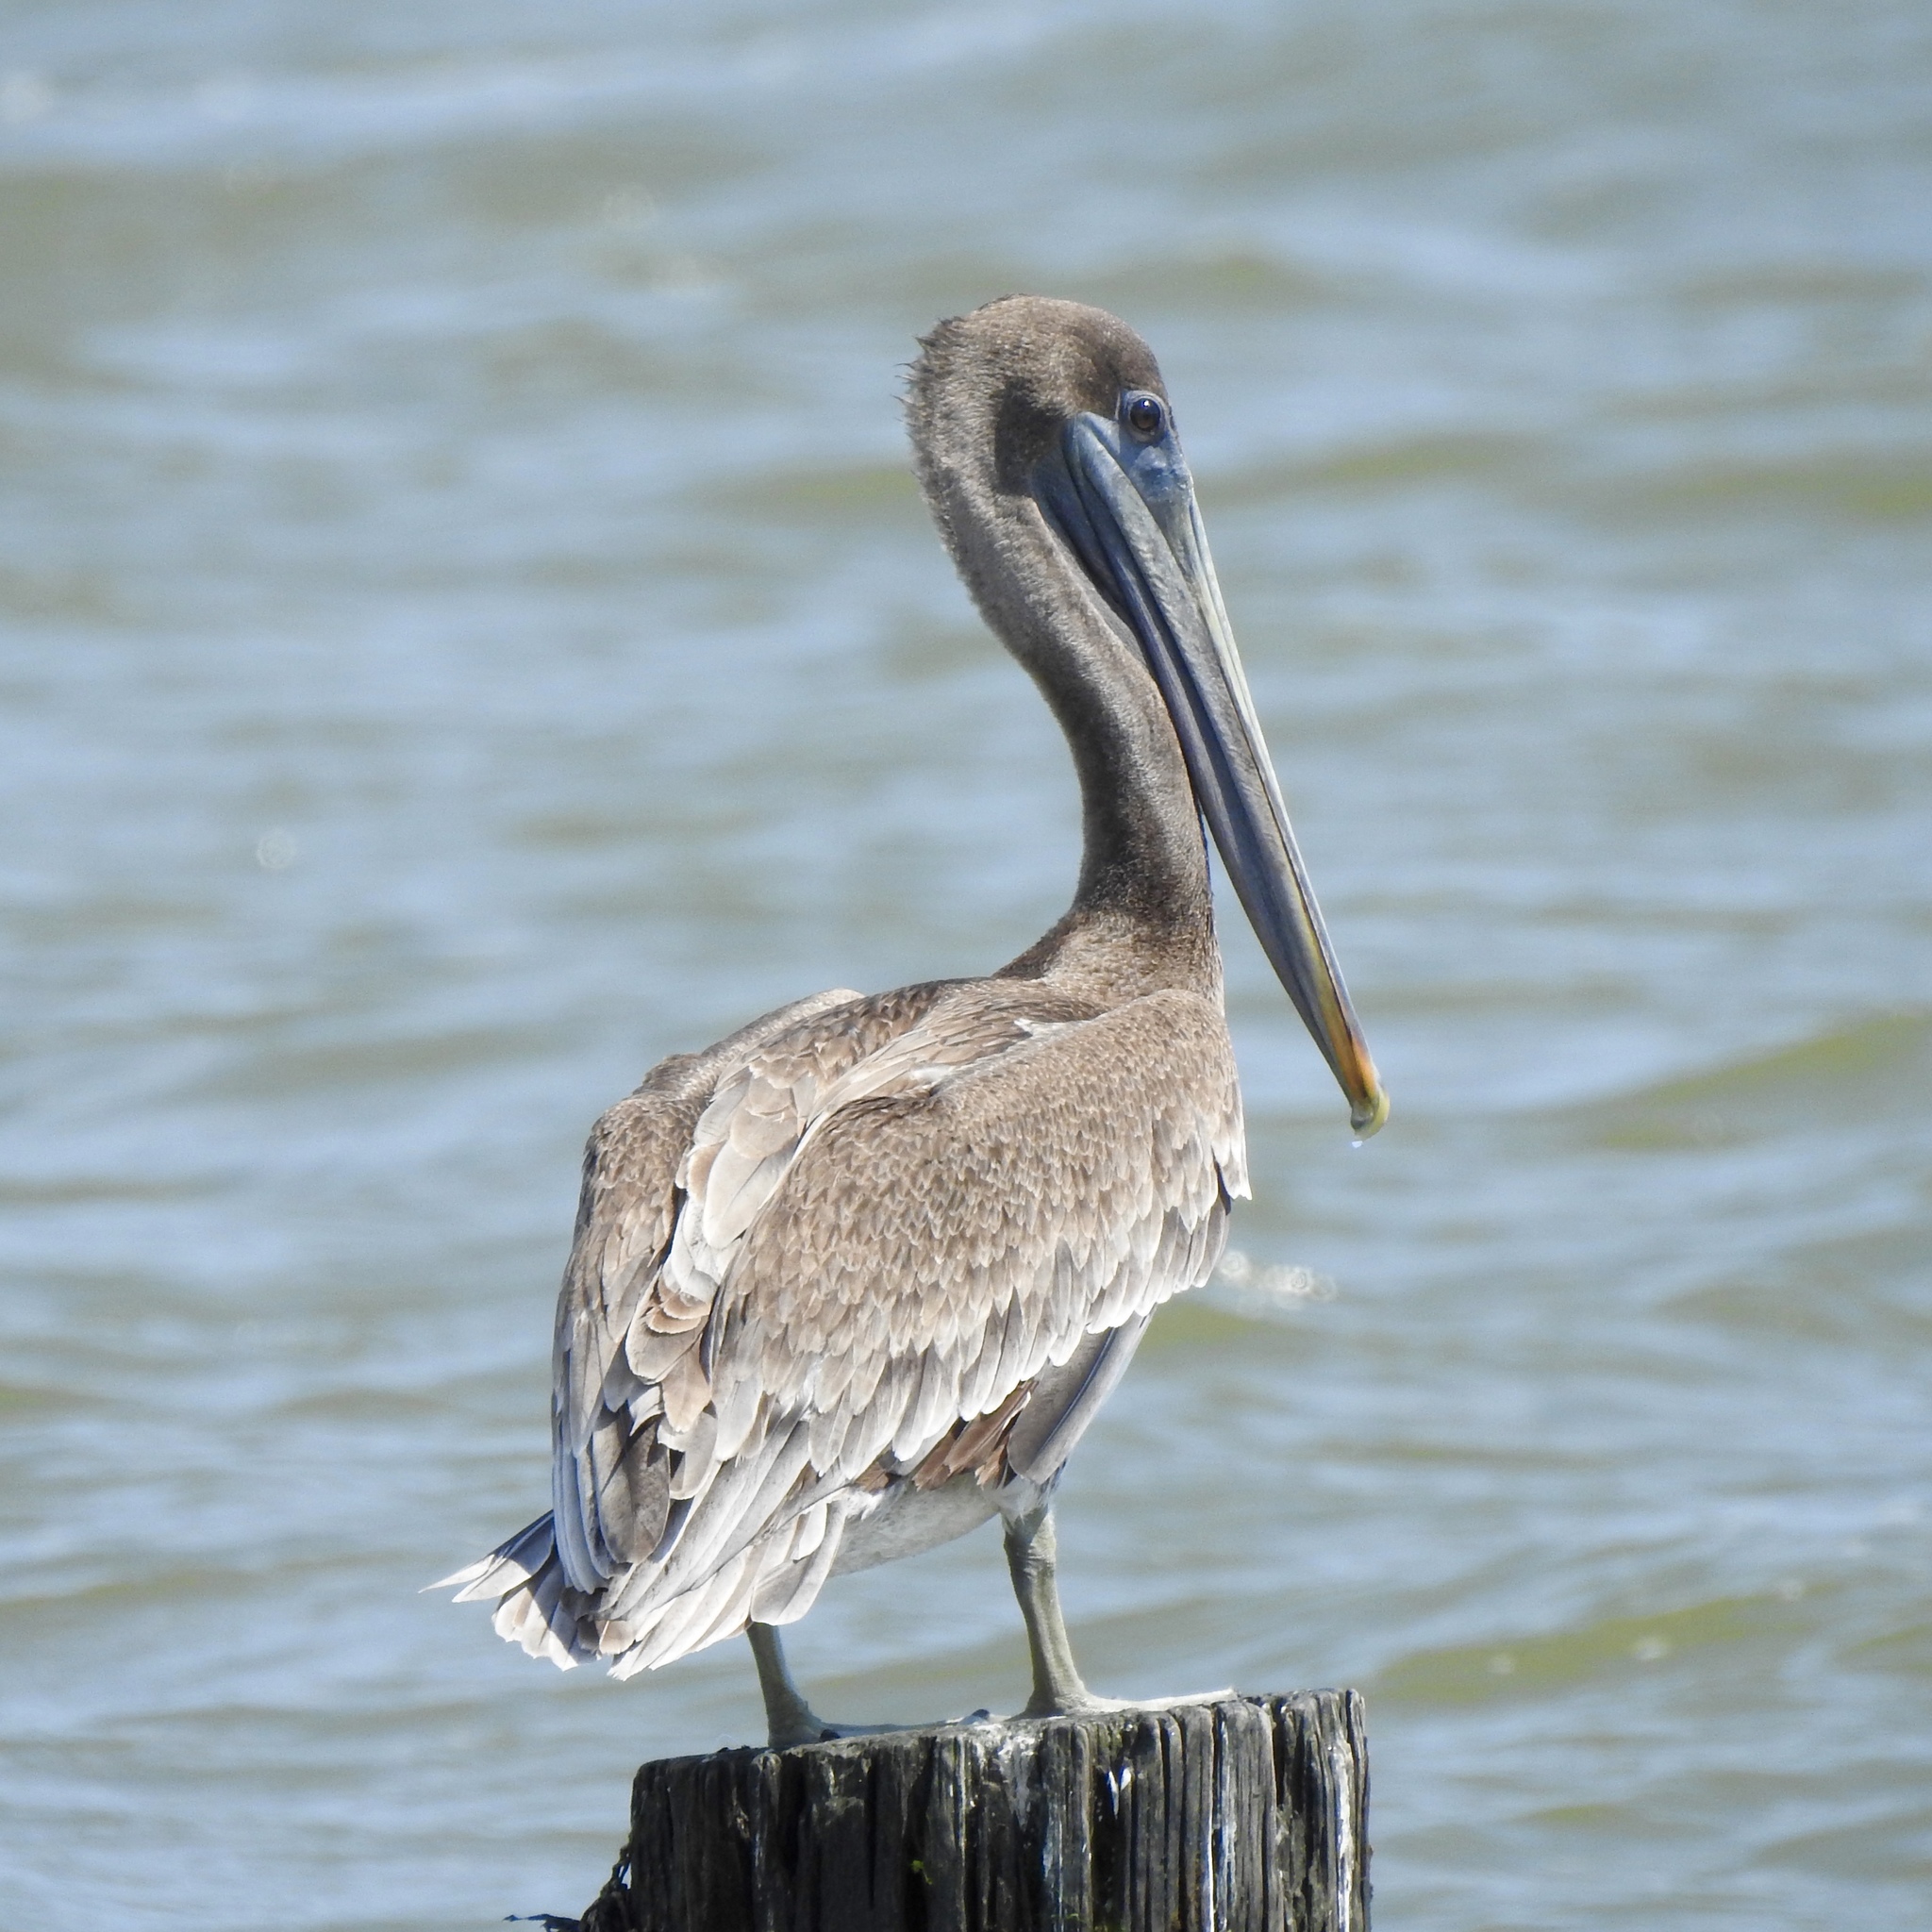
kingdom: Animalia
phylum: Chordata
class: Aves
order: Pelecaniformes
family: Pelecanidae
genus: Pelecanus
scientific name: Pelecanus occidentalis
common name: Brown pelican
